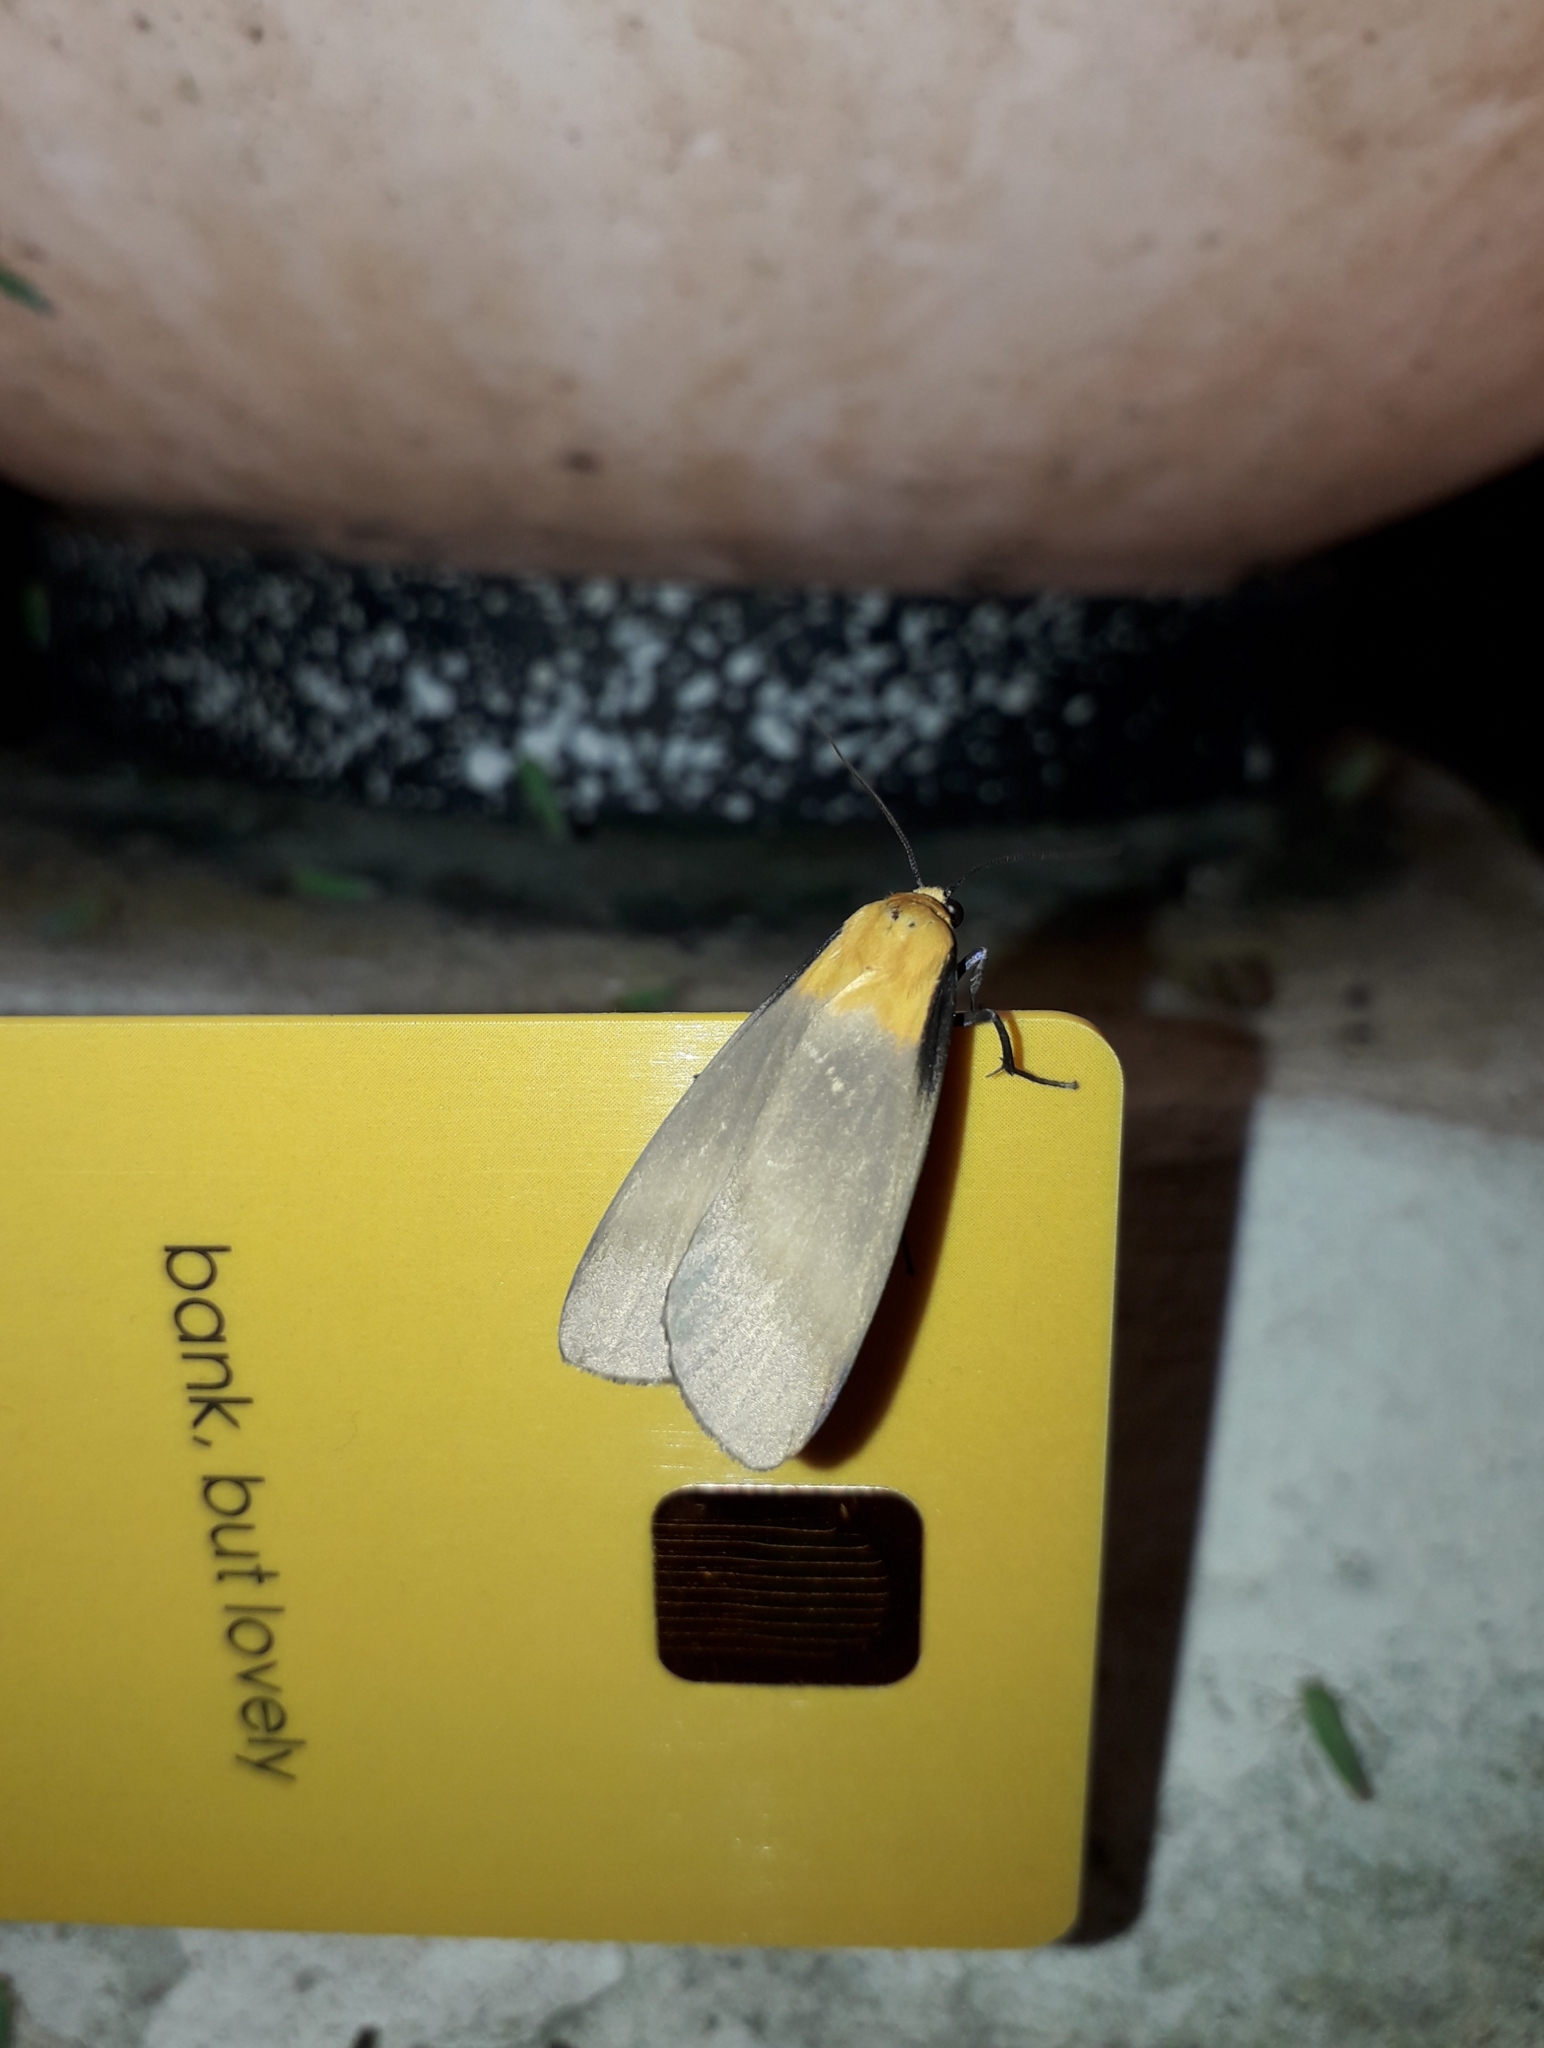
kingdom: Animalia
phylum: Arthropoda
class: Insecta
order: Lepidoptera
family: Erebidae
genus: Lithosia
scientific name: Lithosia quadra
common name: Four-spotted footman
